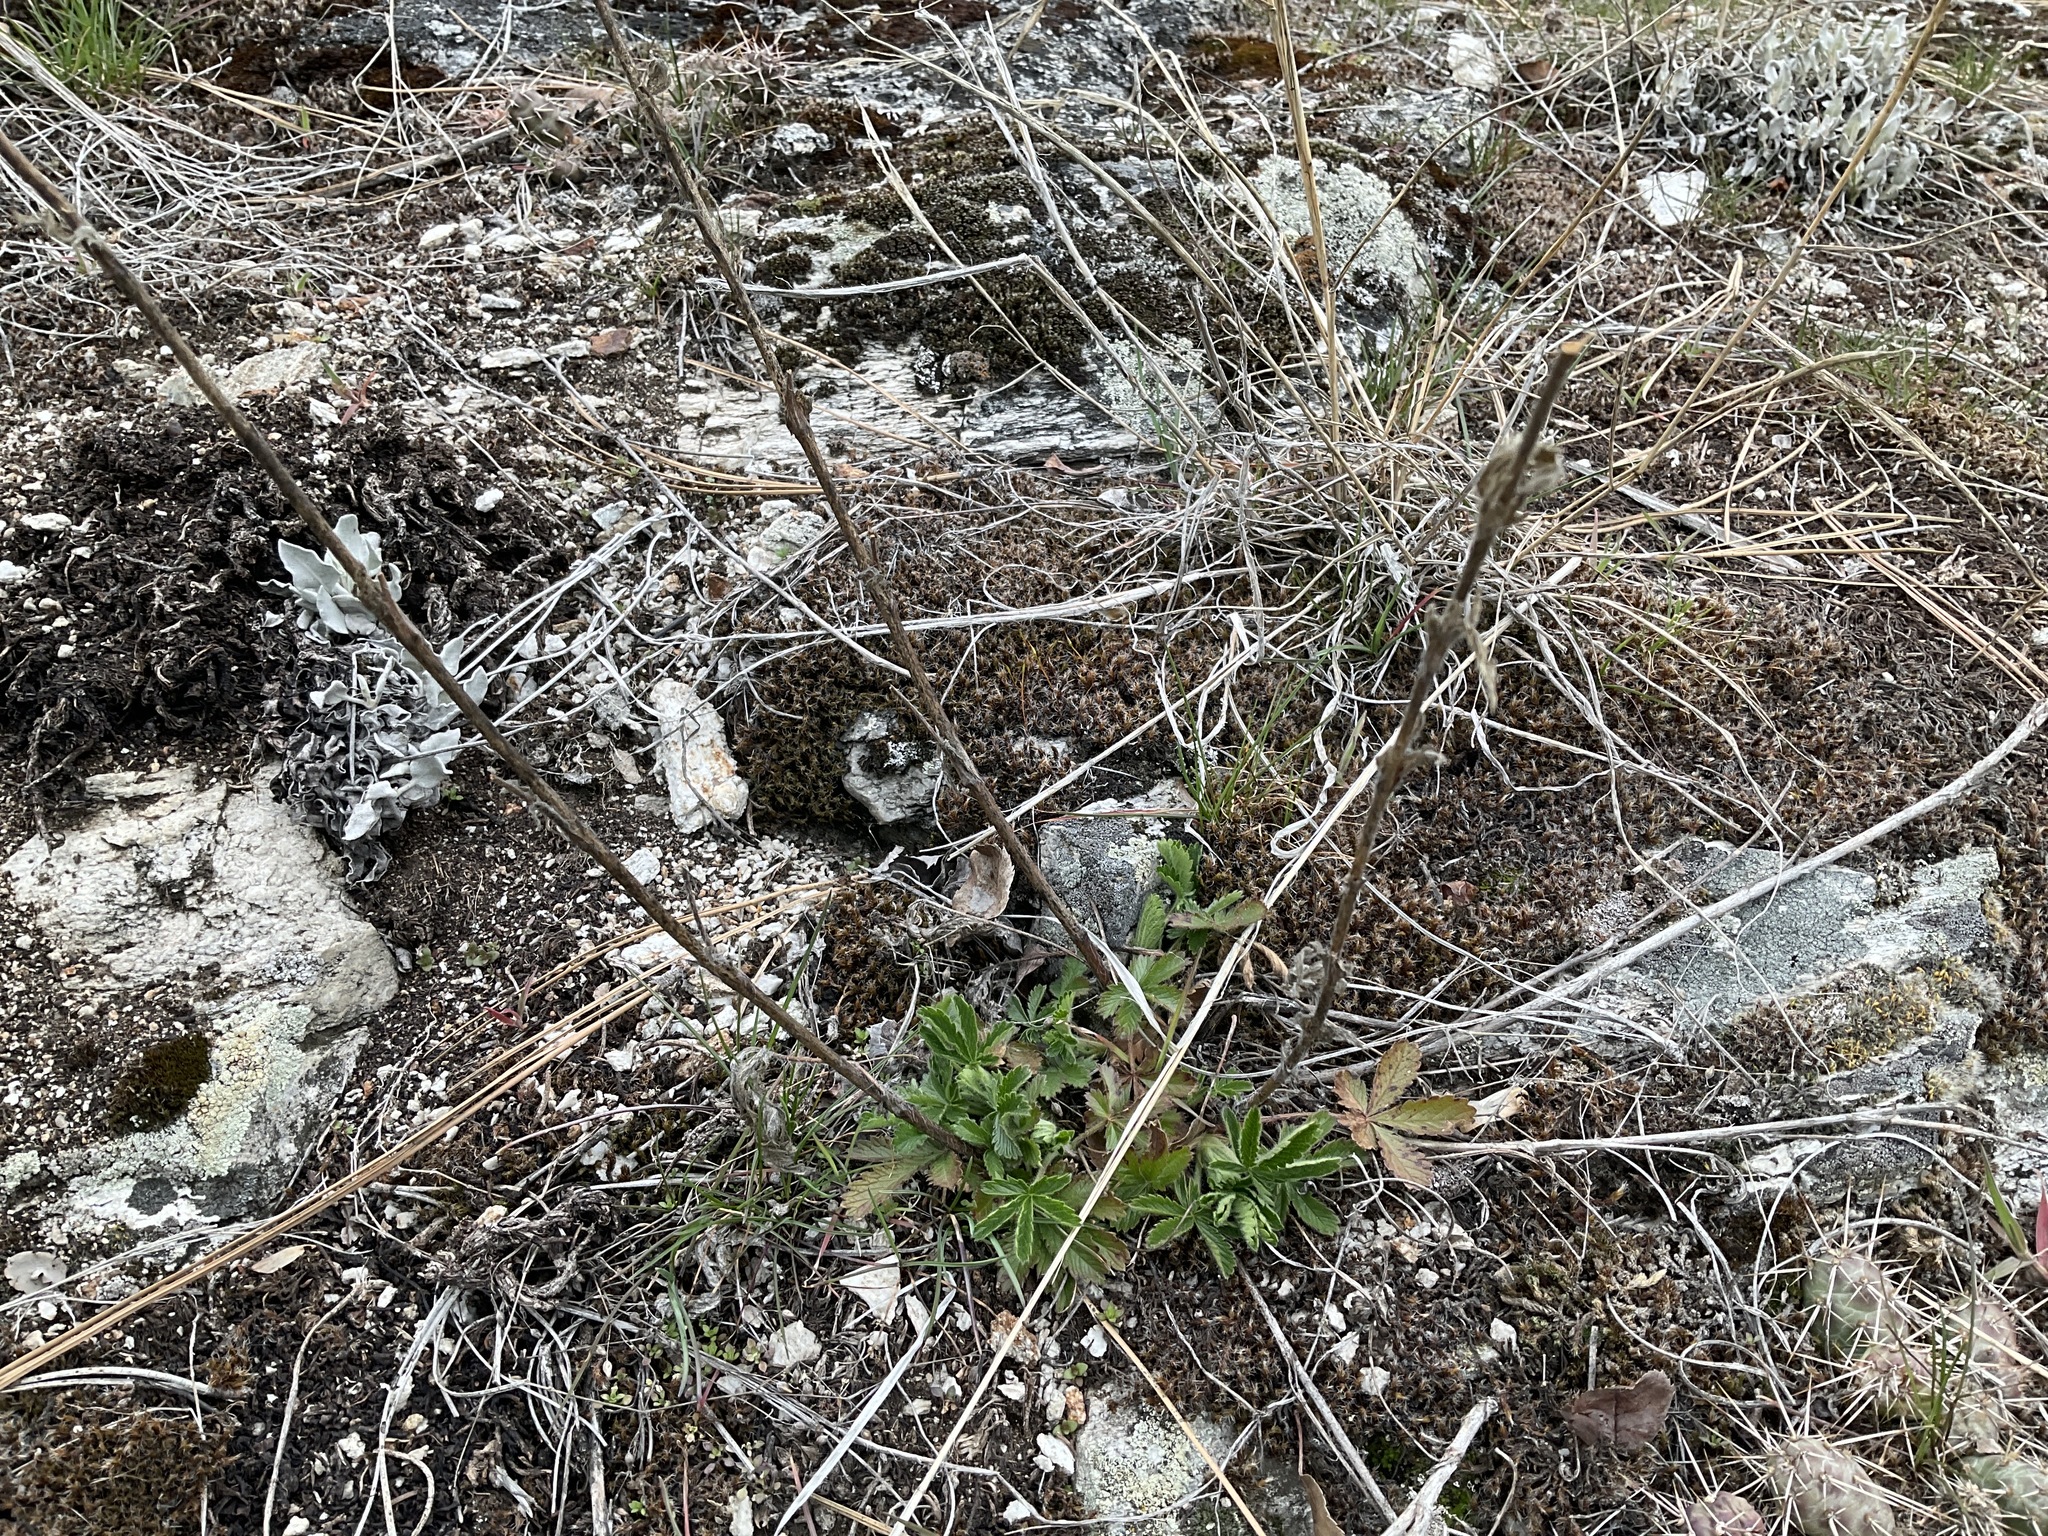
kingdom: Plantae
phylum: Tracheophyta
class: Magnoliopsida
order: Rosales
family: Rosaceae
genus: Potentilla
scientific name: Potentilla recta
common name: Sulphur cinquefoil
